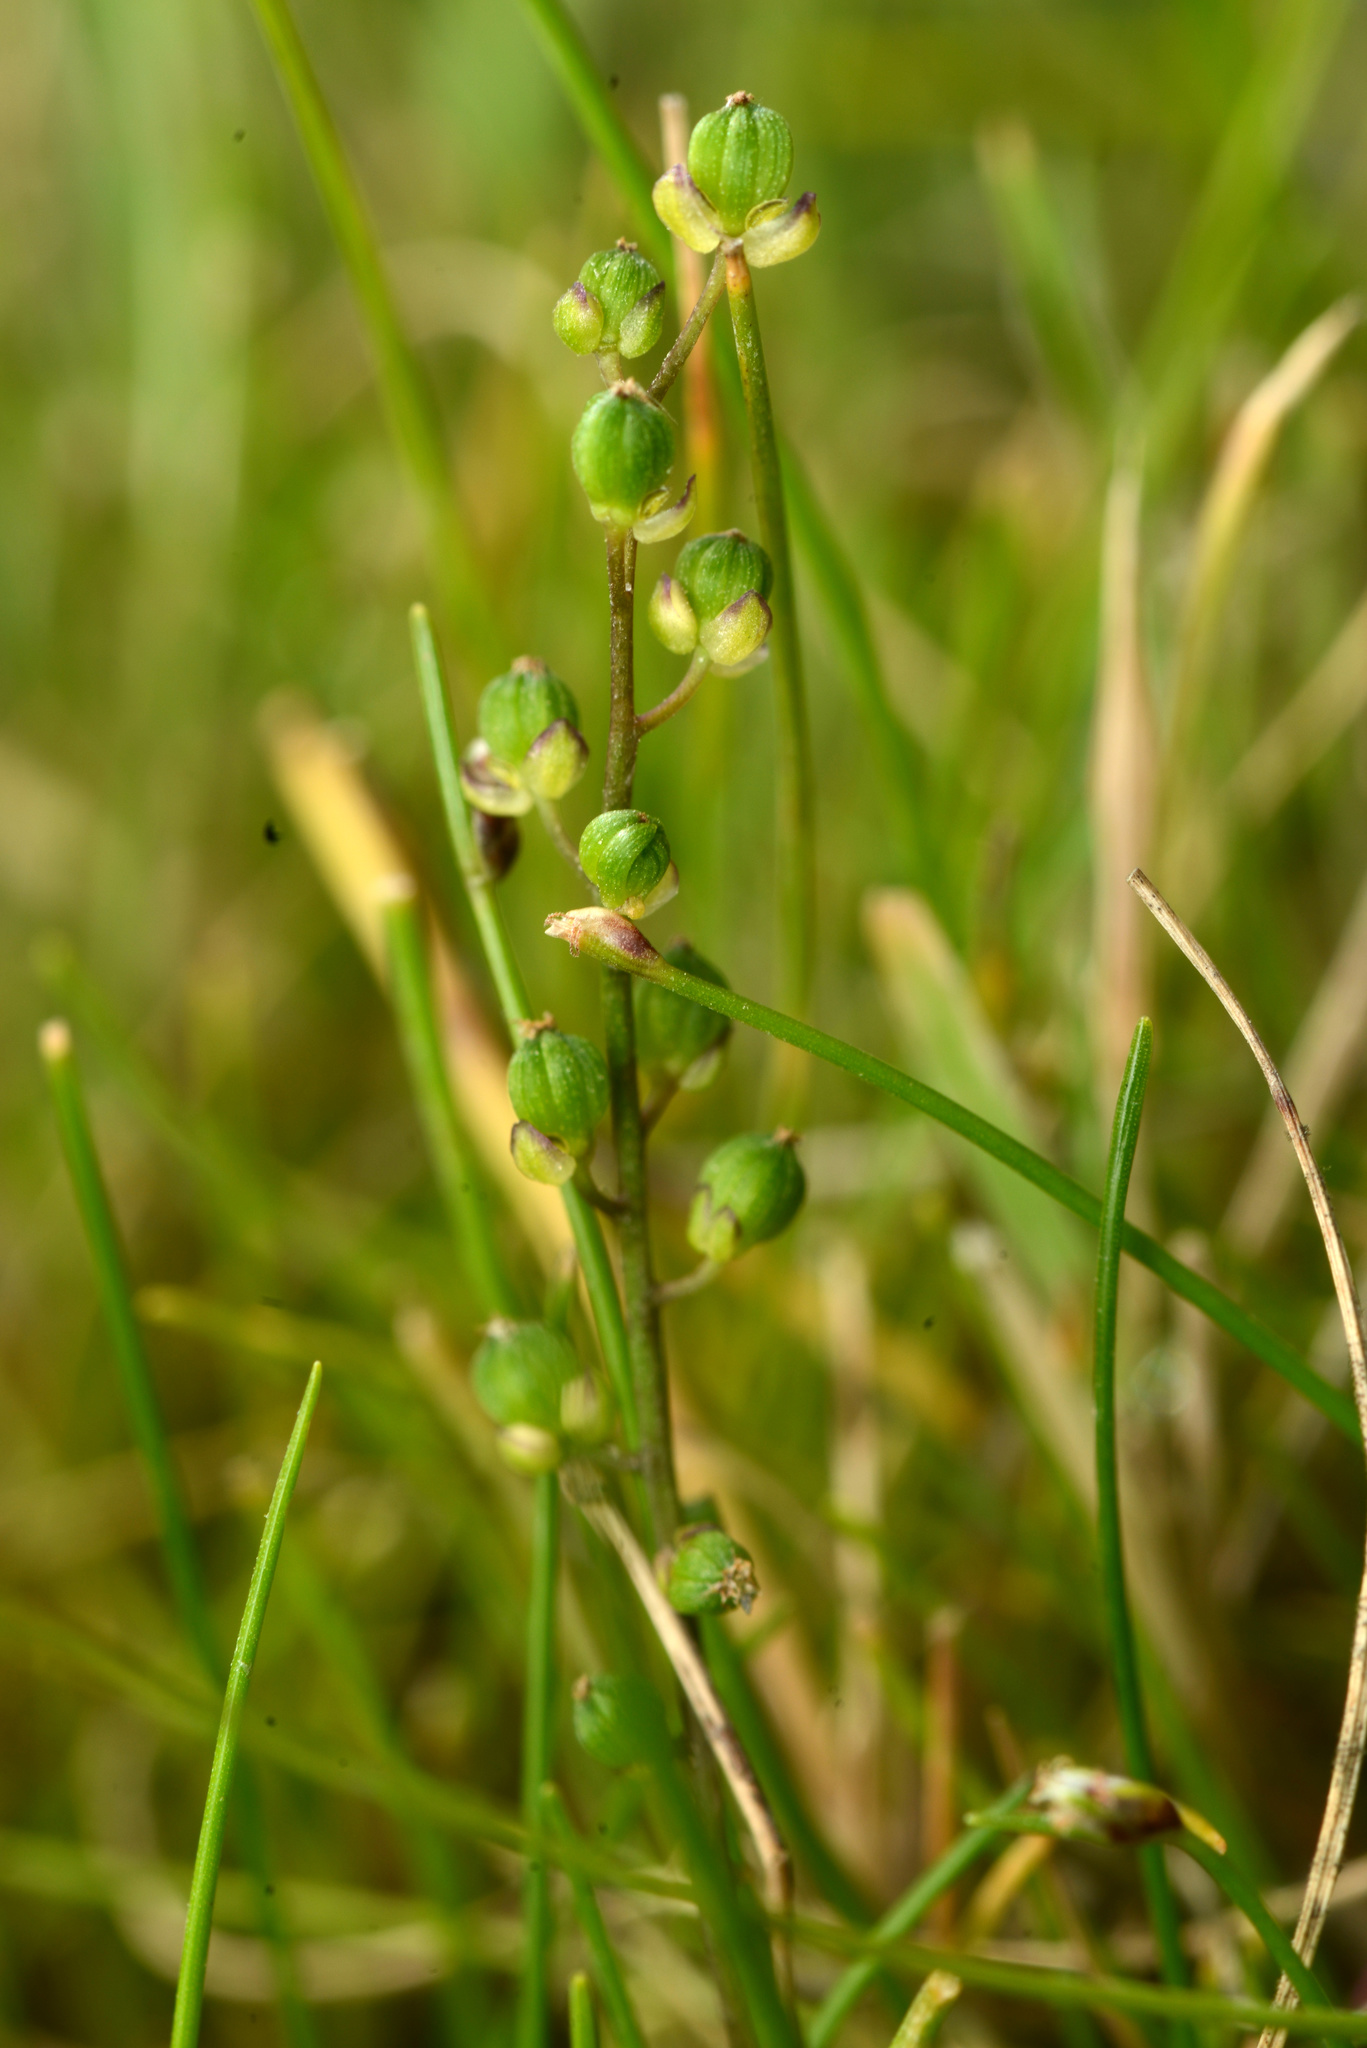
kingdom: Plantae
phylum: Tracheophyta
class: Liliopsida
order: Alismatales
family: Juncaginaceae
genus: Triglochin
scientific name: Triglochin striata
